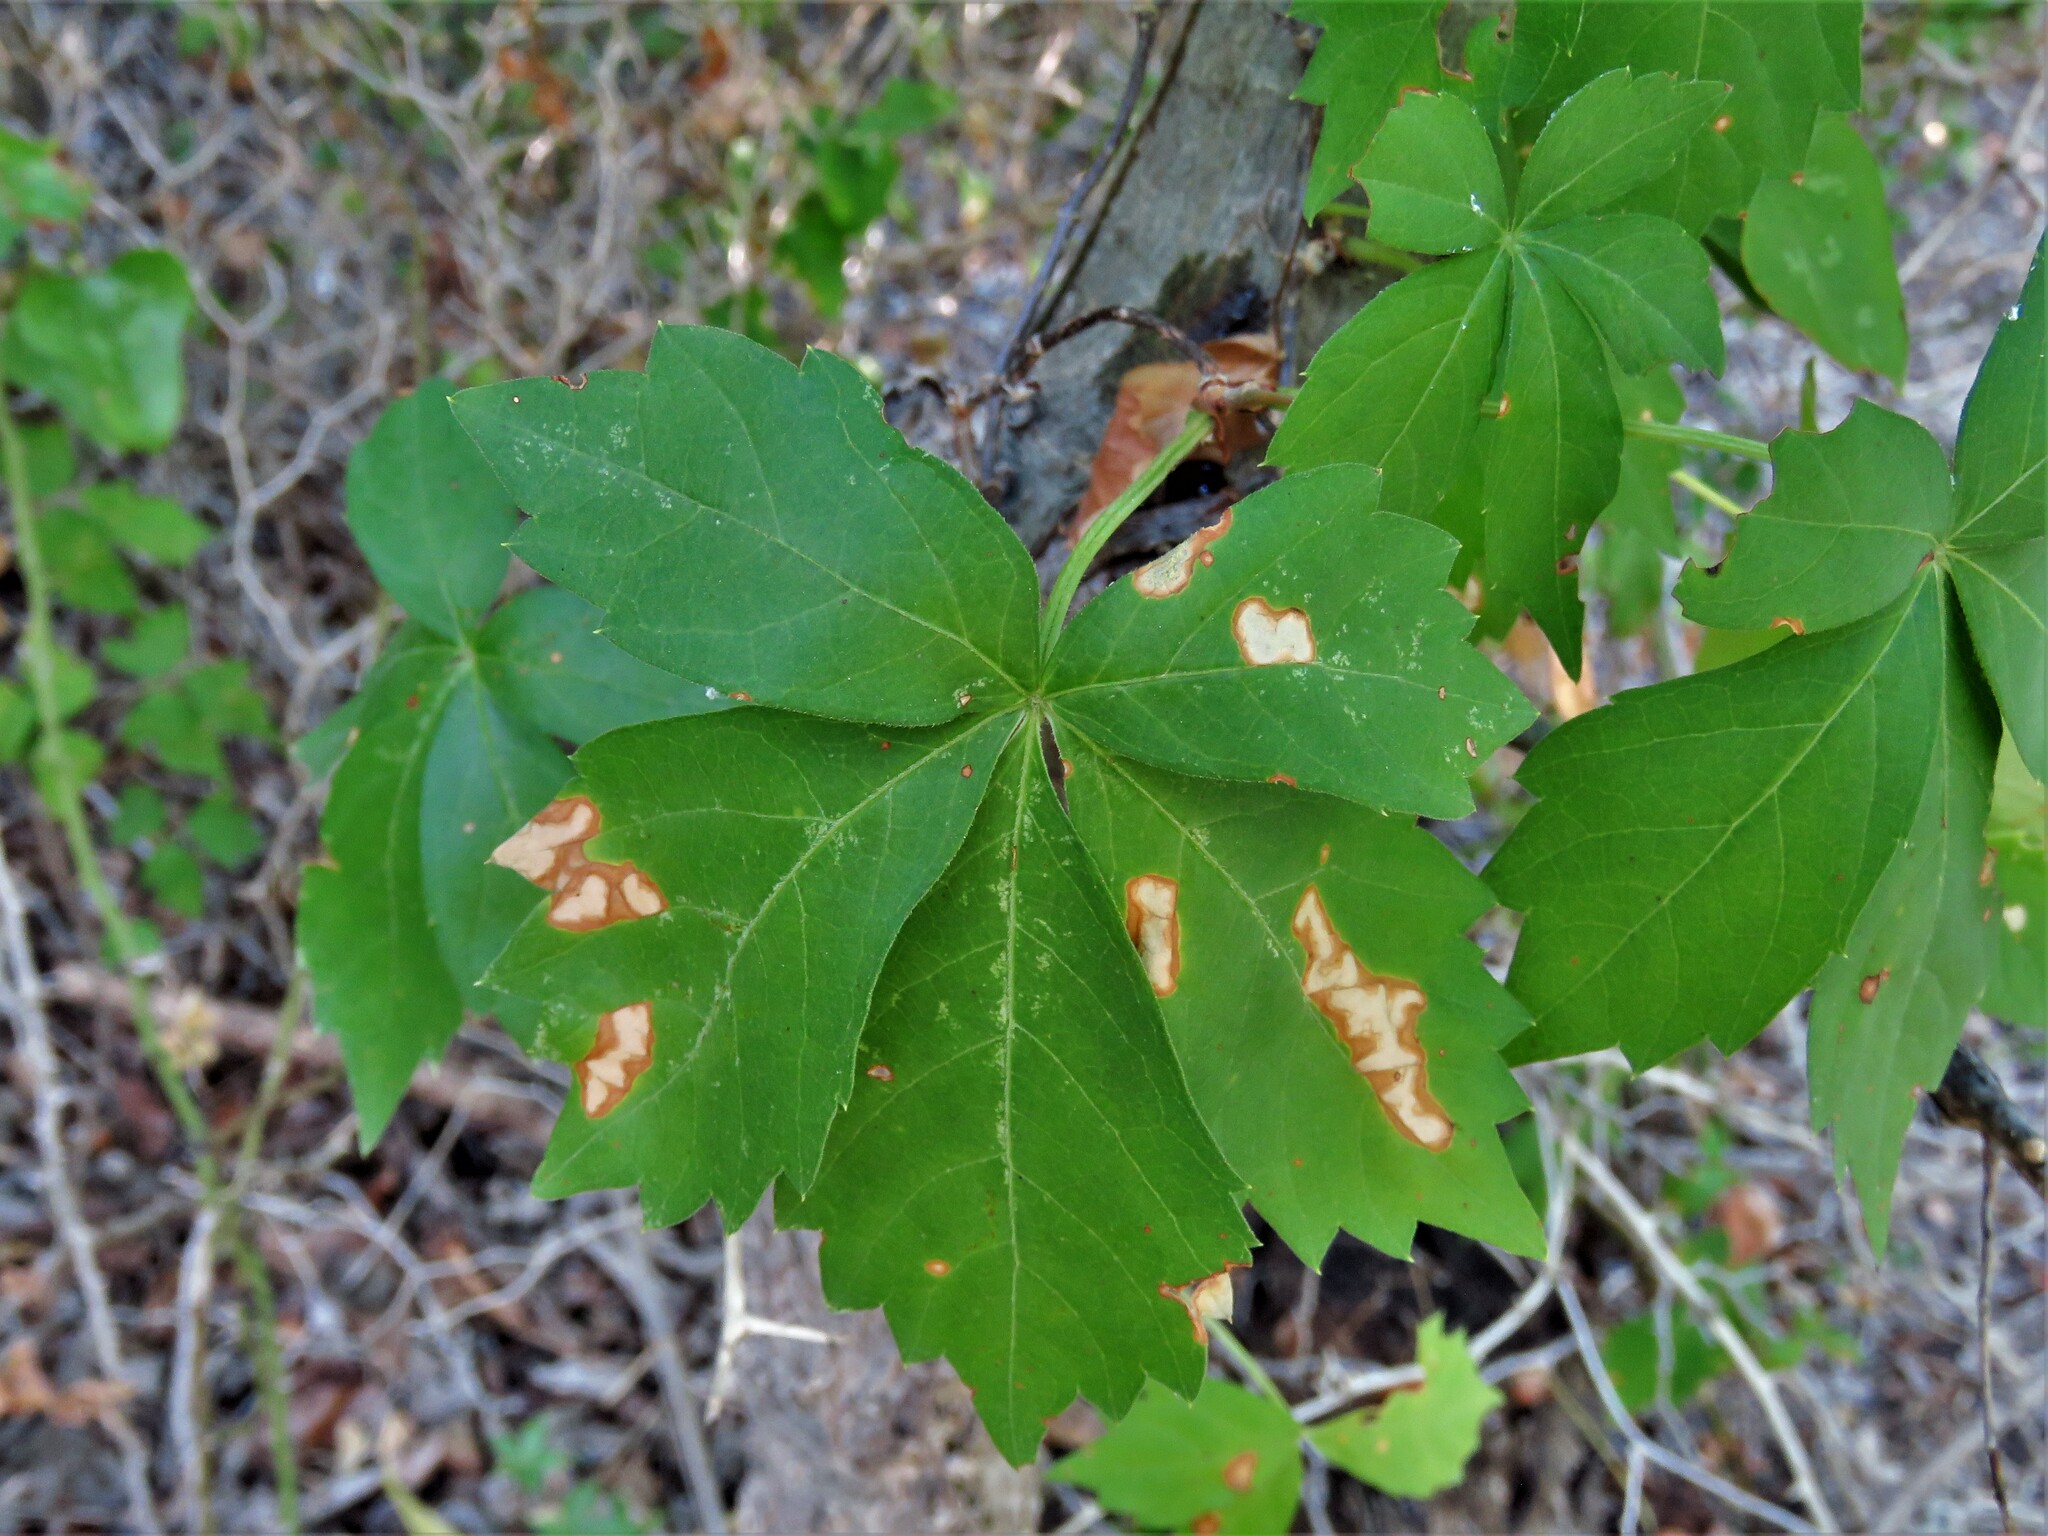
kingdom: Plantae
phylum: Tracheophyta
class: Magnoliopsida
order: Vitales
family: Vitaceae
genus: Parthenocissus
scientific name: Parthenocissus quinquefolia
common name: Virginia-creeper
